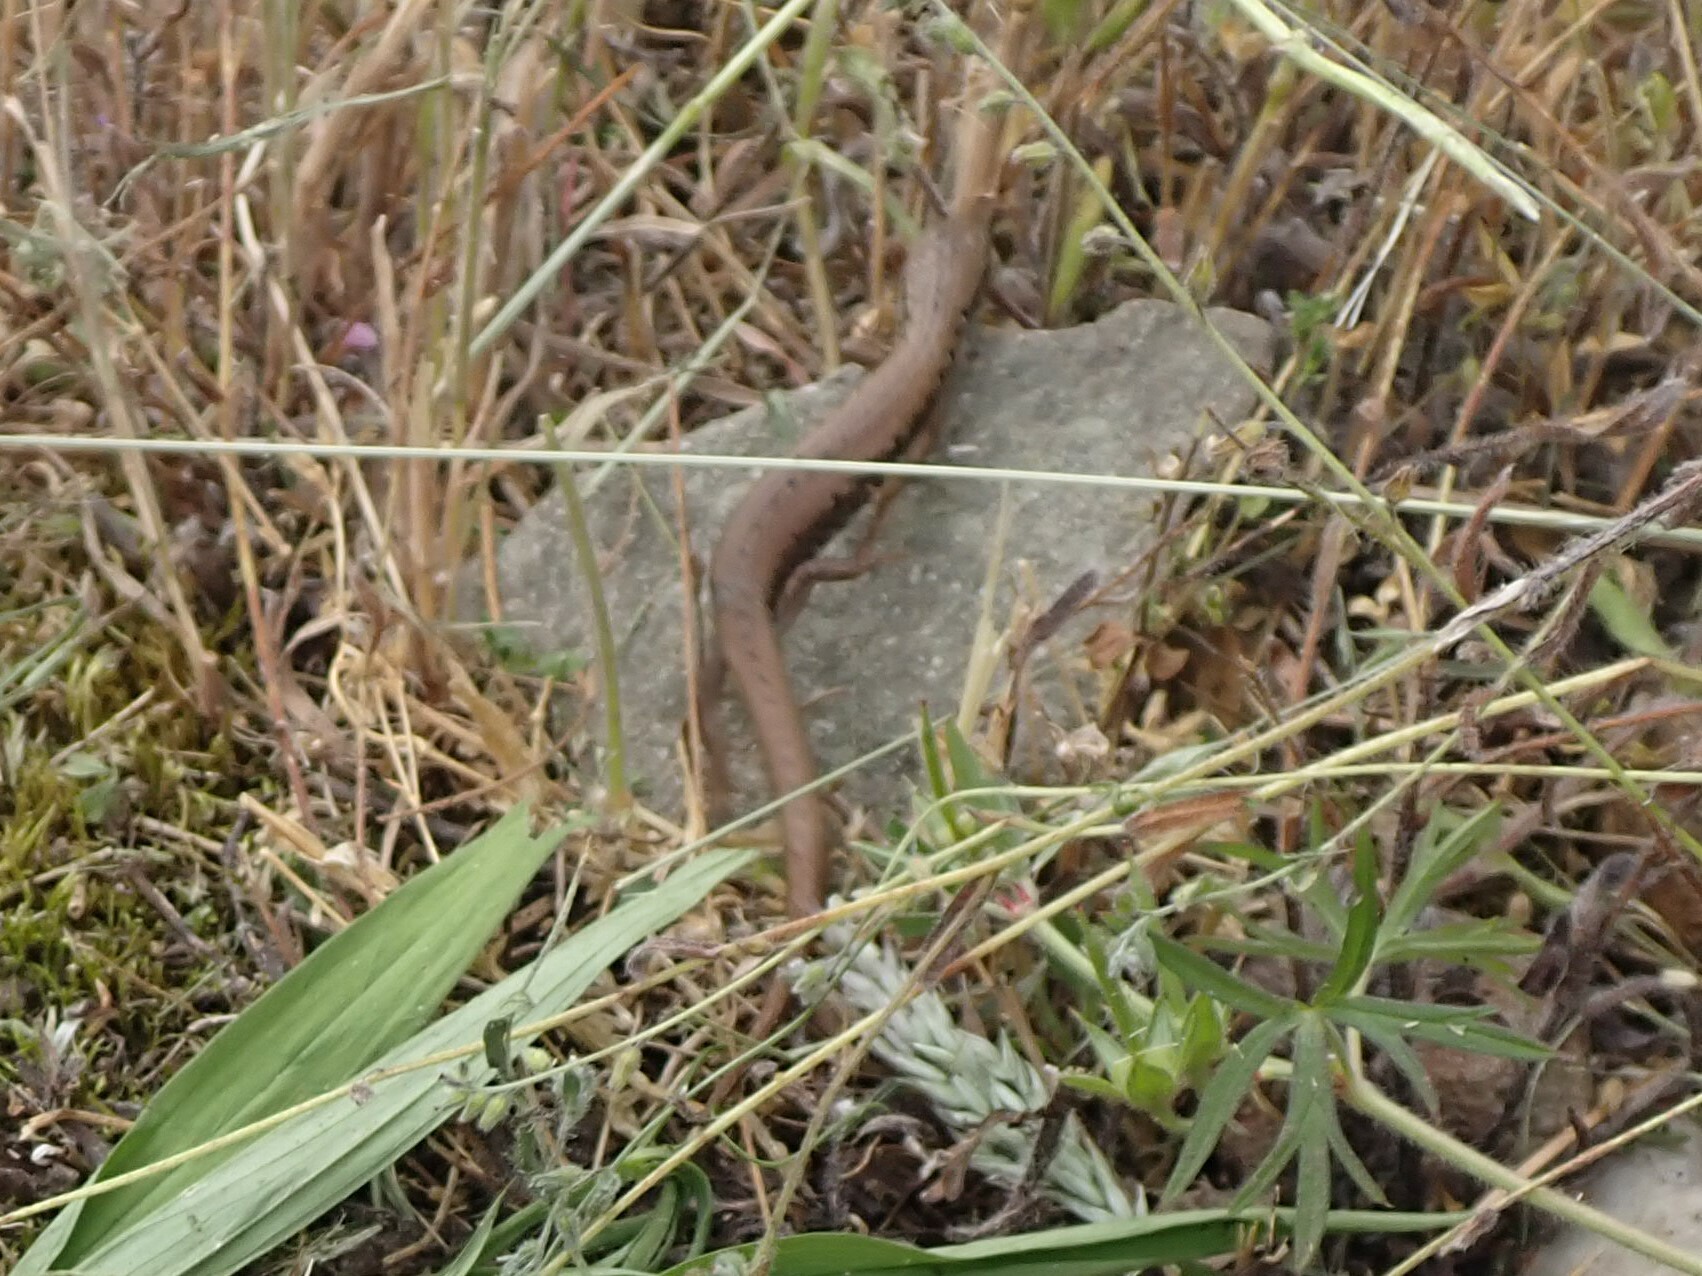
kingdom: Animalia
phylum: Chordata
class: Squamata
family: Anguidae
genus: Elgaria
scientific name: Elgaria coerulea
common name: Northern alligator lizard
